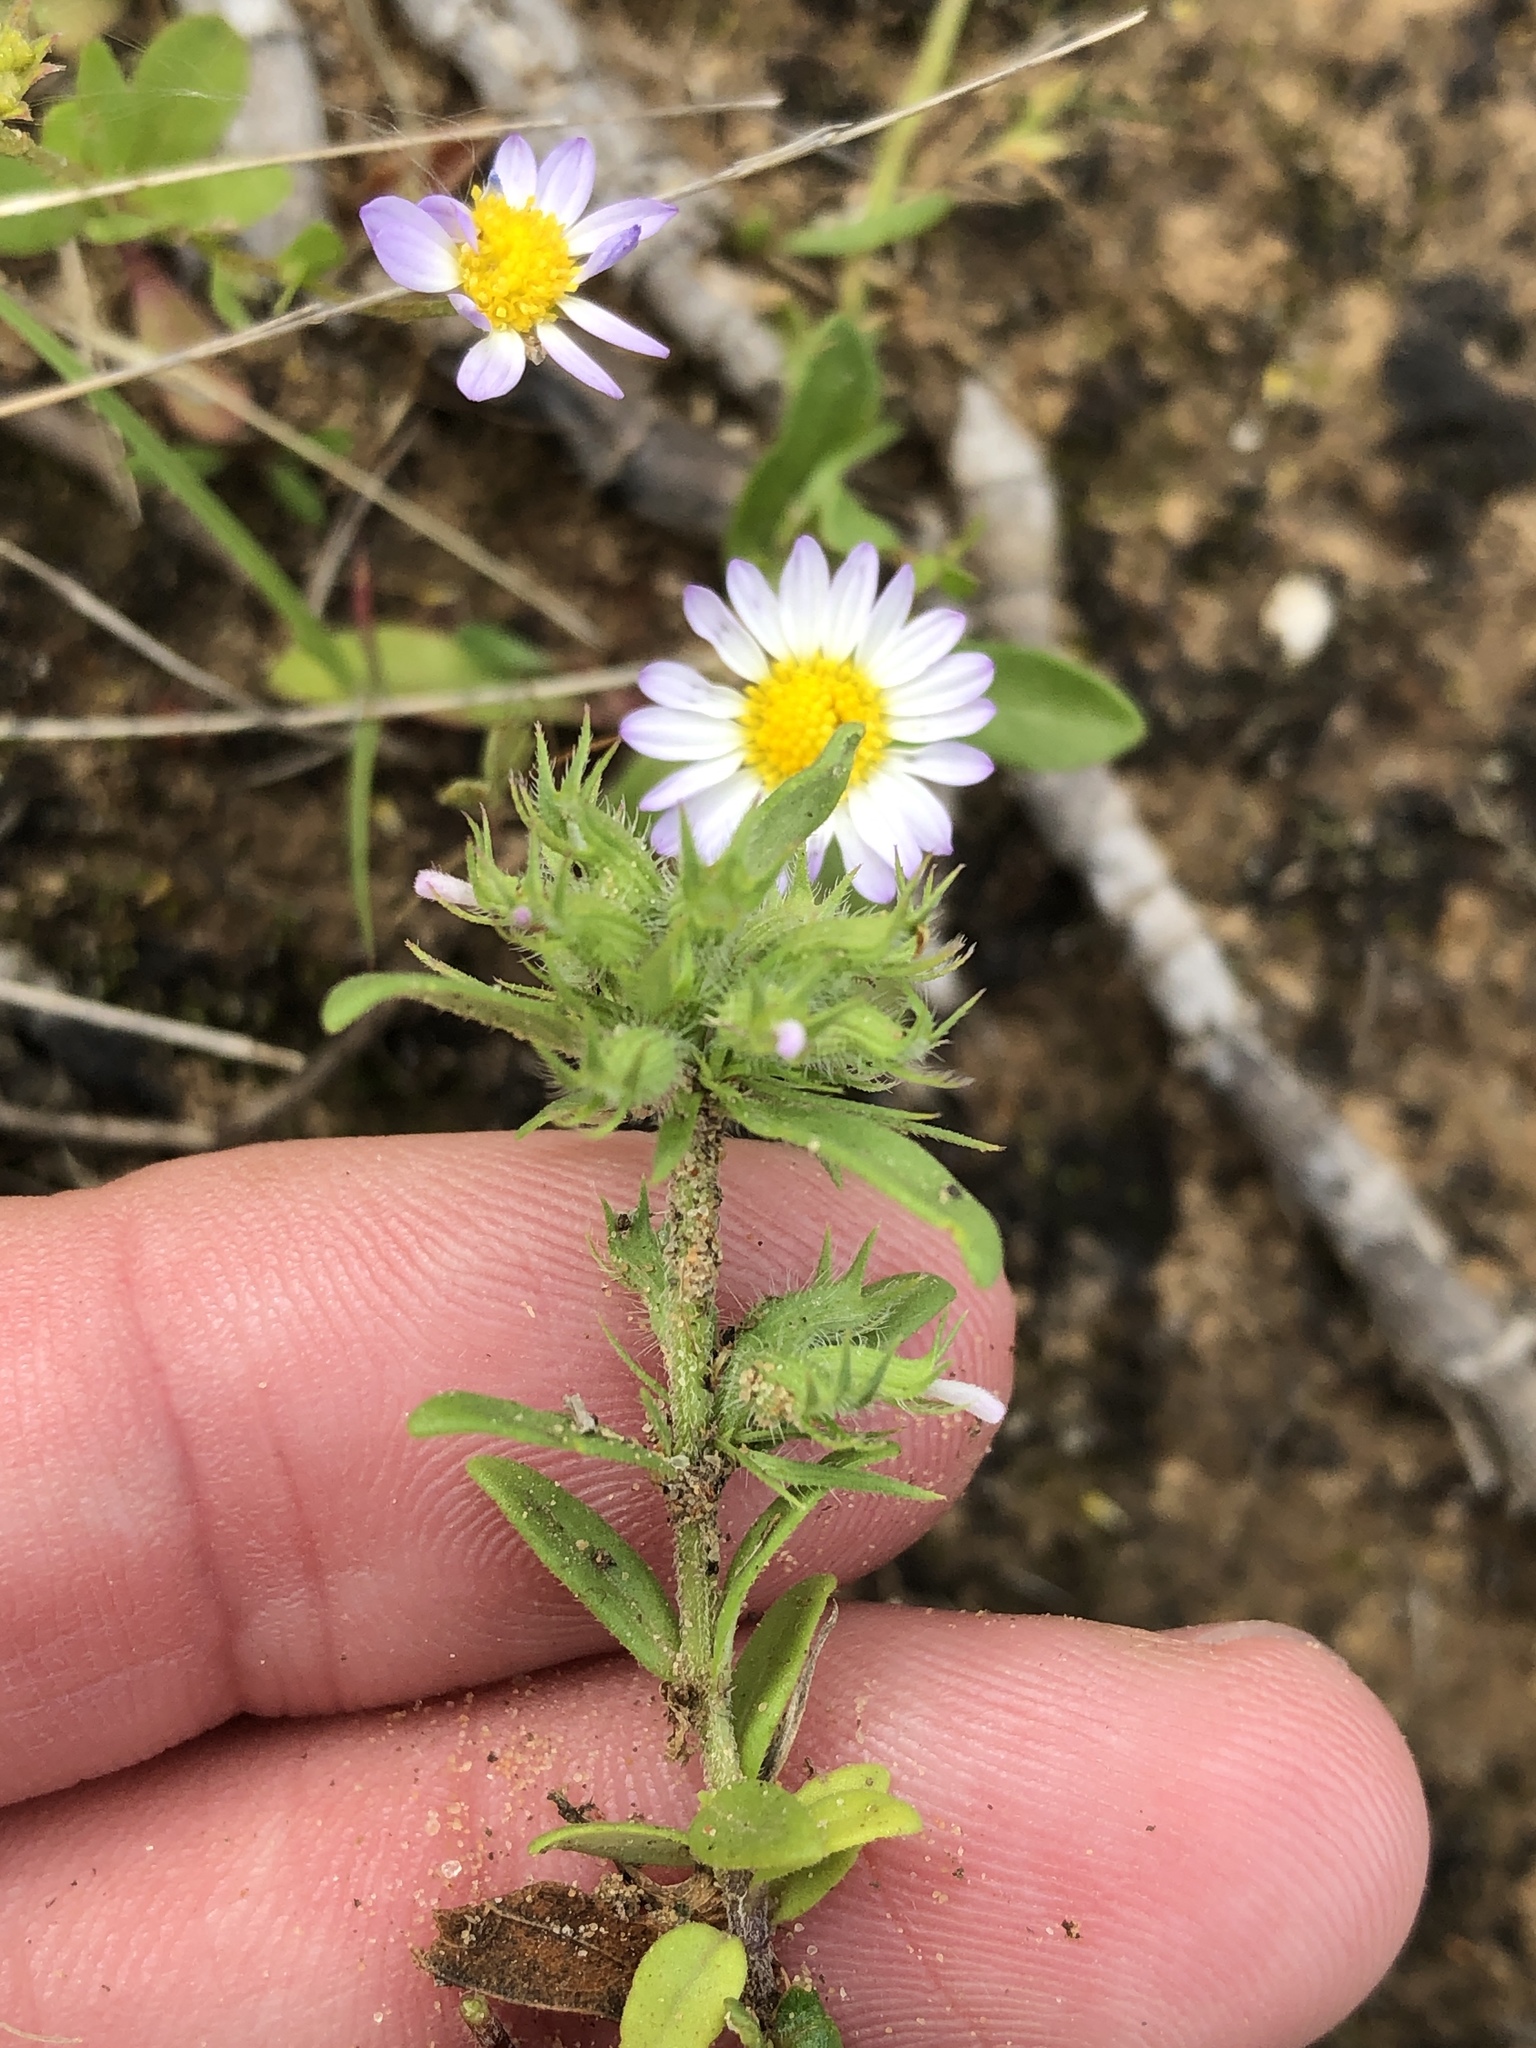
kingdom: Plantae
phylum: Tracheophyta
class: Magnoliopsida
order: Lamiales
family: Lamiaceae
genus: Hedeoma
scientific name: Hedeoma hispida
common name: Mock pennyroyal
